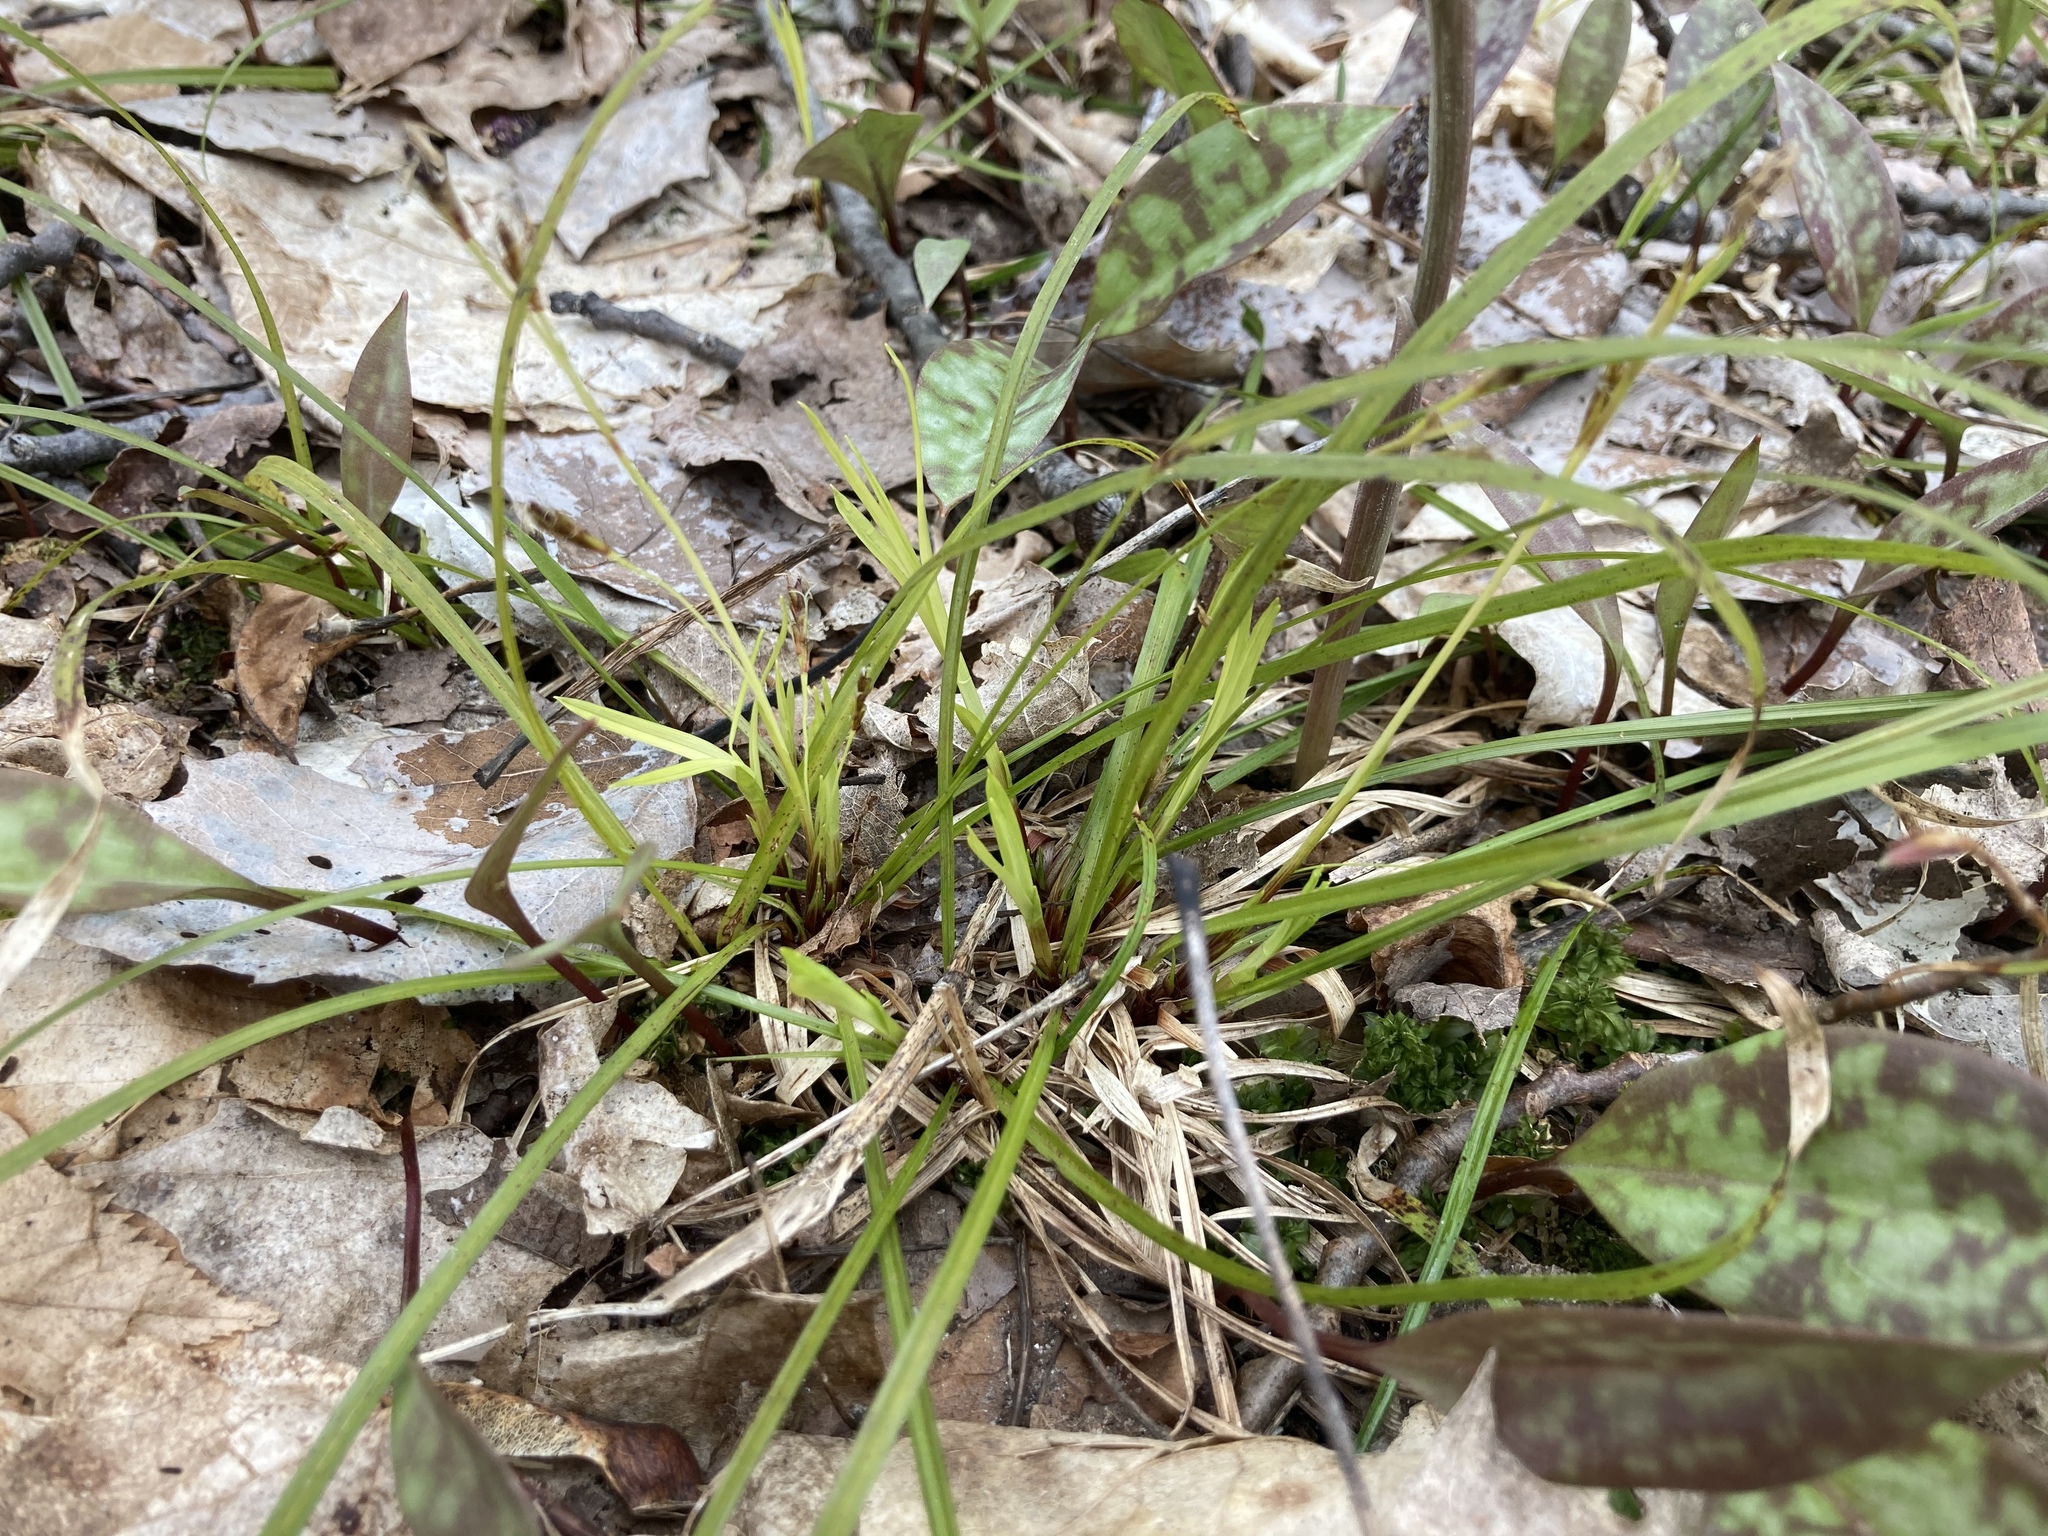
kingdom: Plantae
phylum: Tracheophyta
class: Liliopsida
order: Poales
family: Cyperaceae
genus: Carex
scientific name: Carex pedunculata
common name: Pedunculate sedge
